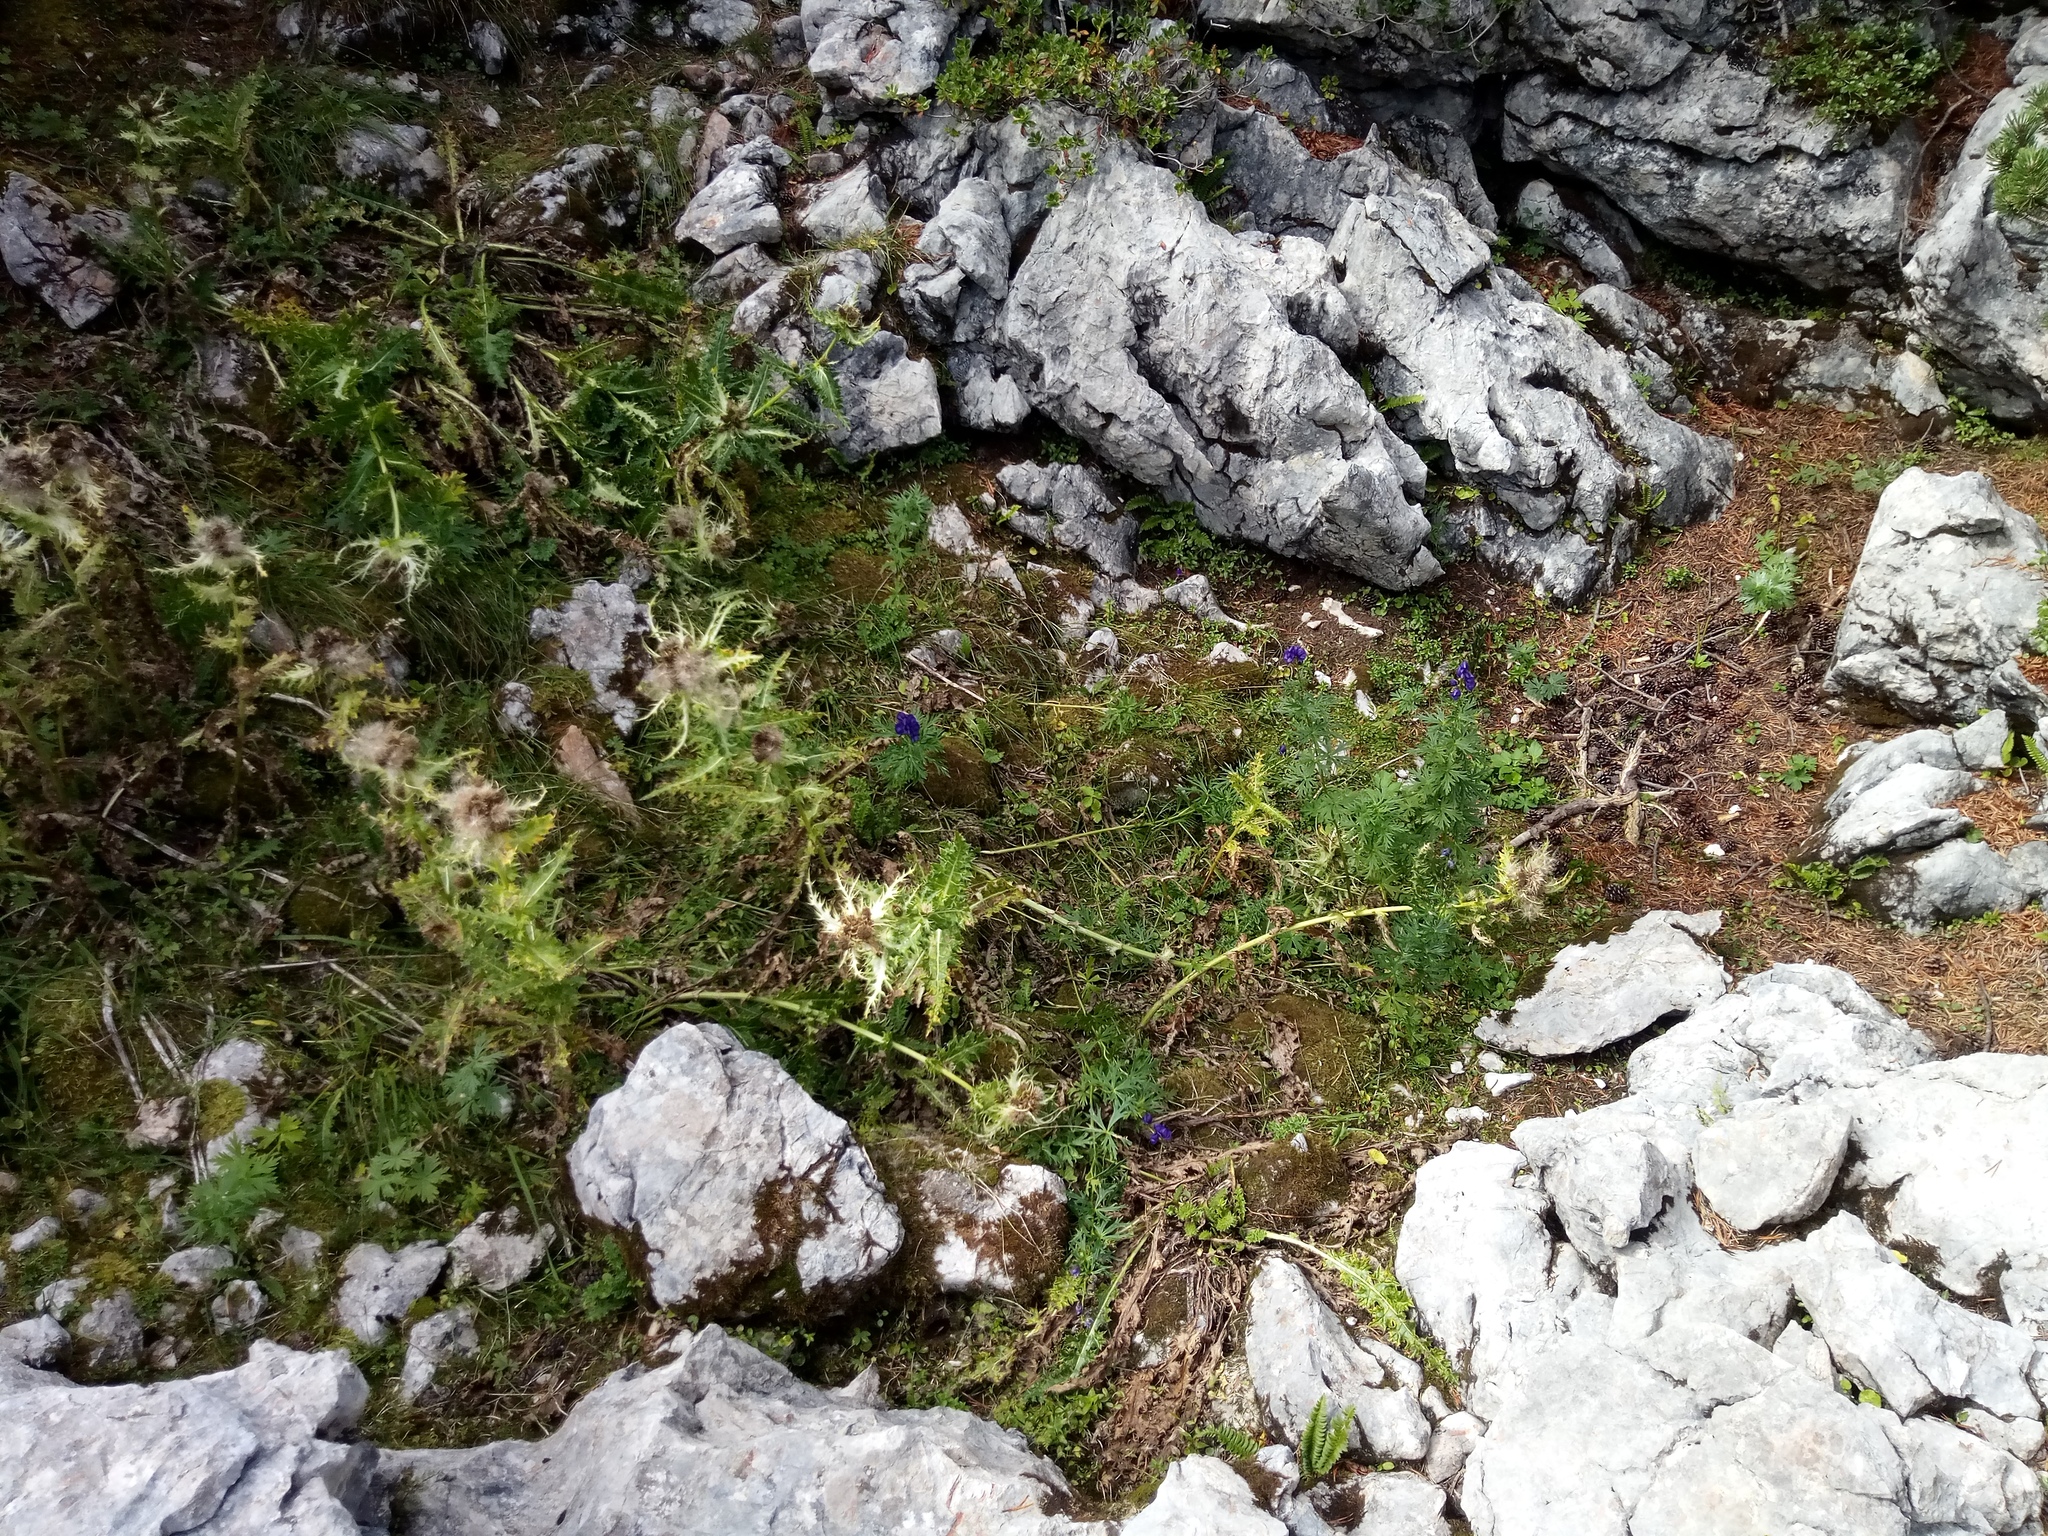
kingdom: Plantae
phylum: Tracheophyta
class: Magnoliopsida
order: Asterales
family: Asteraceae
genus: Cirsium
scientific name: Cirsium spinosissimum
